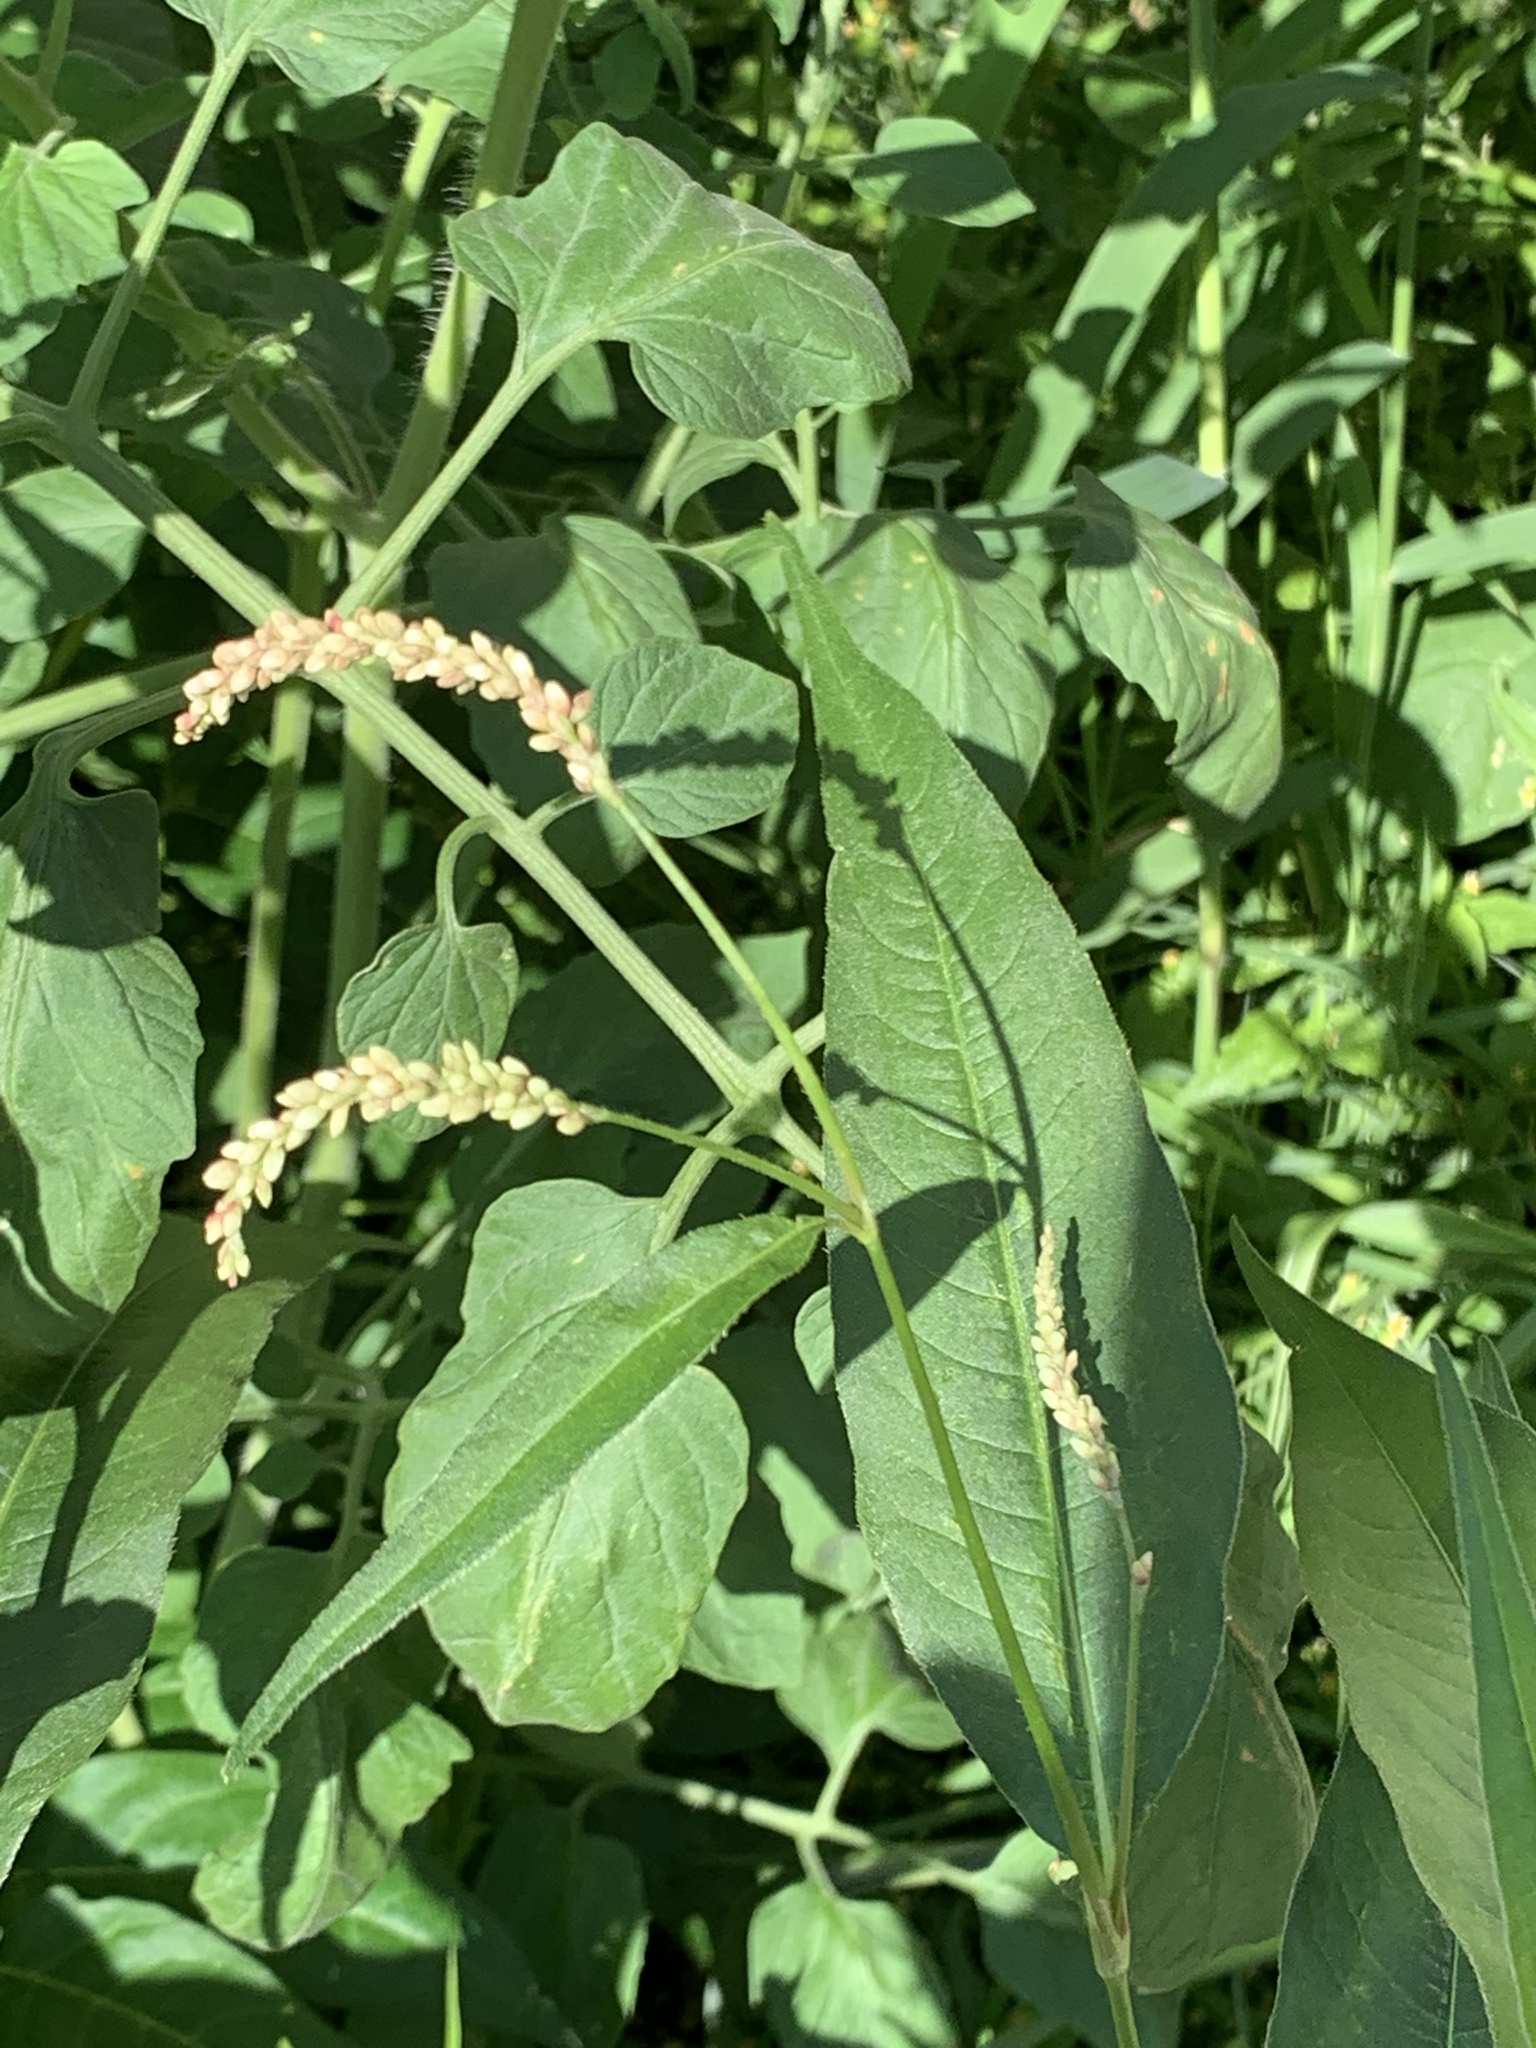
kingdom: Plantae
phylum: Tracheophyta
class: Magnoliopsida
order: Caryophyllales
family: Polygonaceae
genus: Persicaria
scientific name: Persicaria extremiorientalis
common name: Far-eastern smartweed
